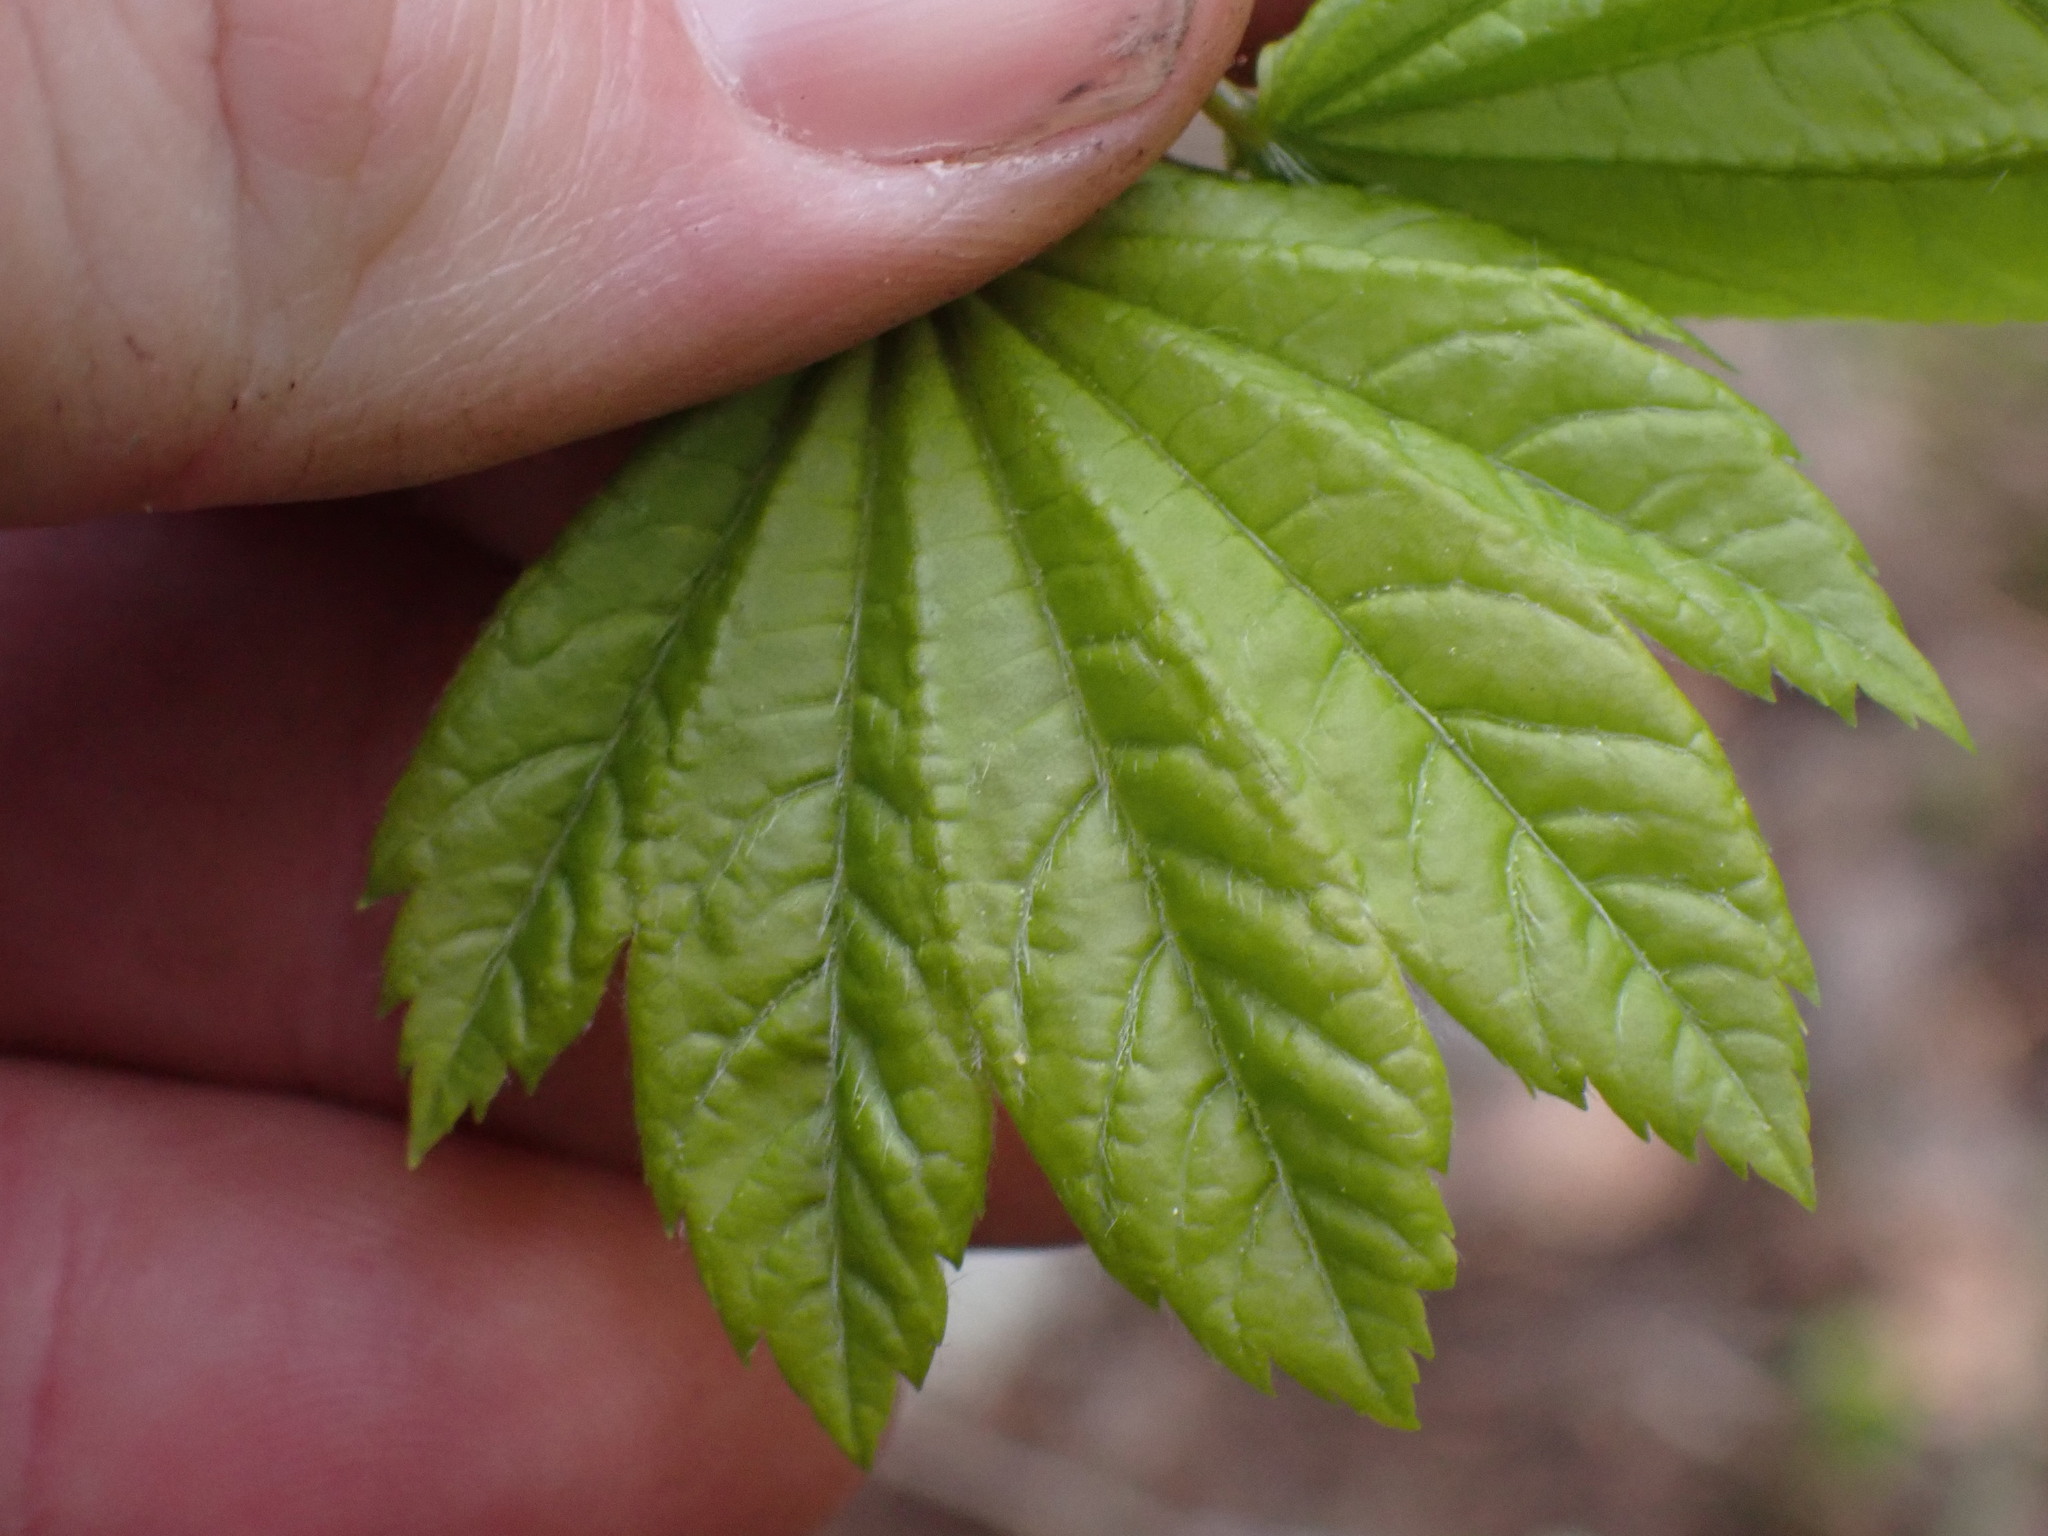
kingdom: Plantae
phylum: Tracheophyta
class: Magnoliopsida
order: Sapindales
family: Sapindaceae
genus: Acer
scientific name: Acer circinatum
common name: Vine maple
